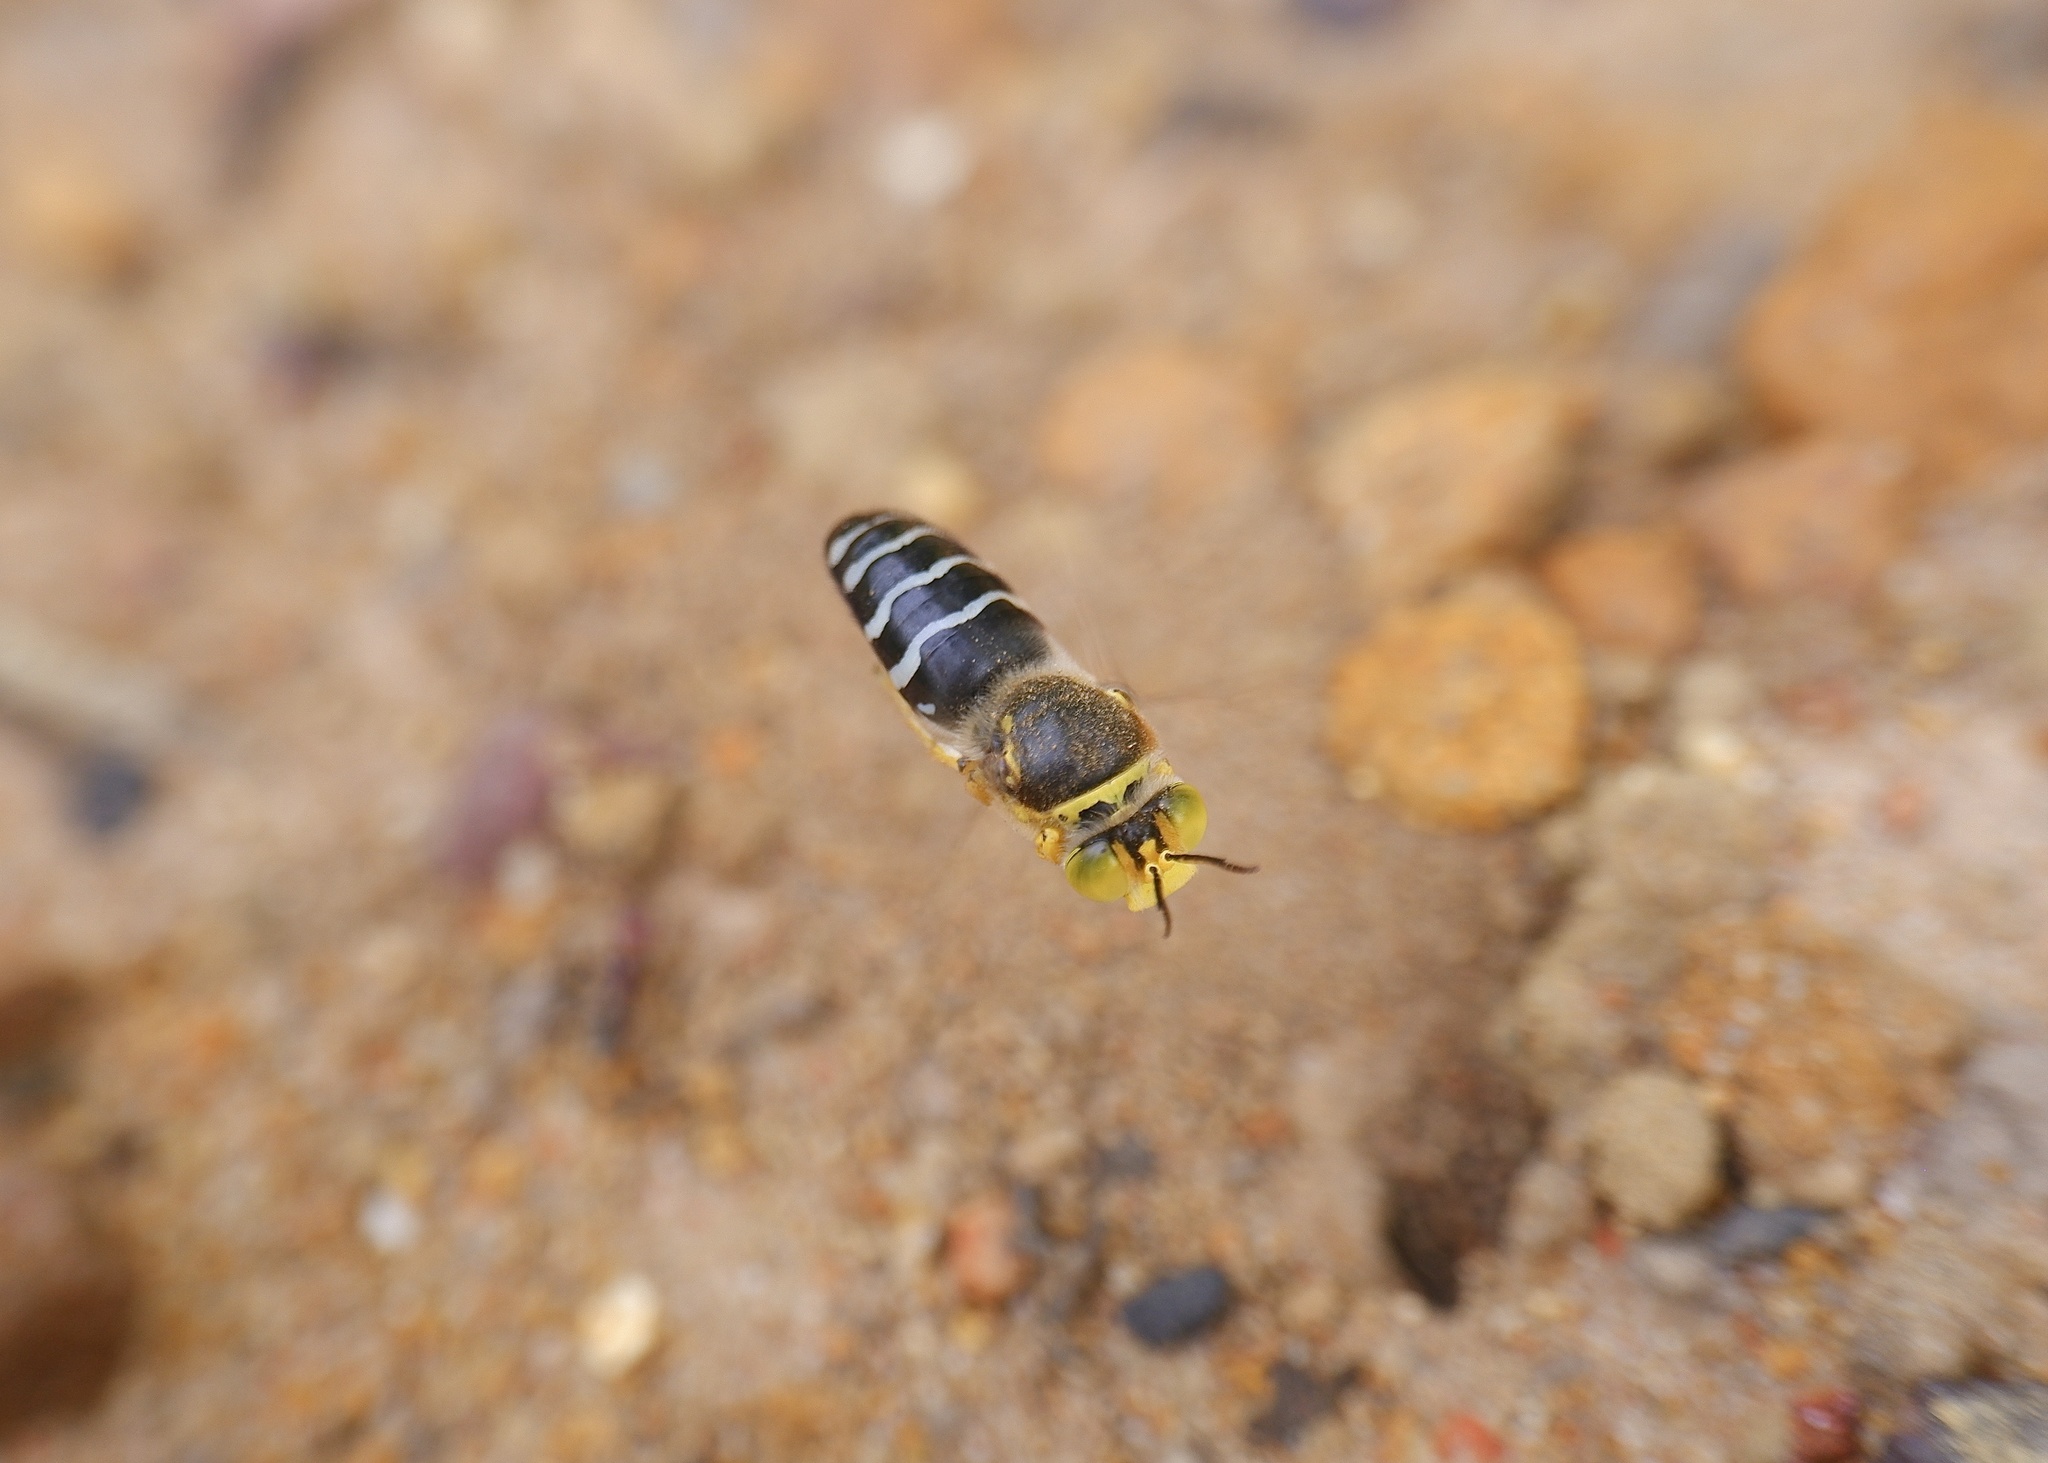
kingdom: Animalia
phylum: Arthropoda
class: Insecta
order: Hymenoptera
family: Crabronidae
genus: Bembix
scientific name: Bembix palmata
